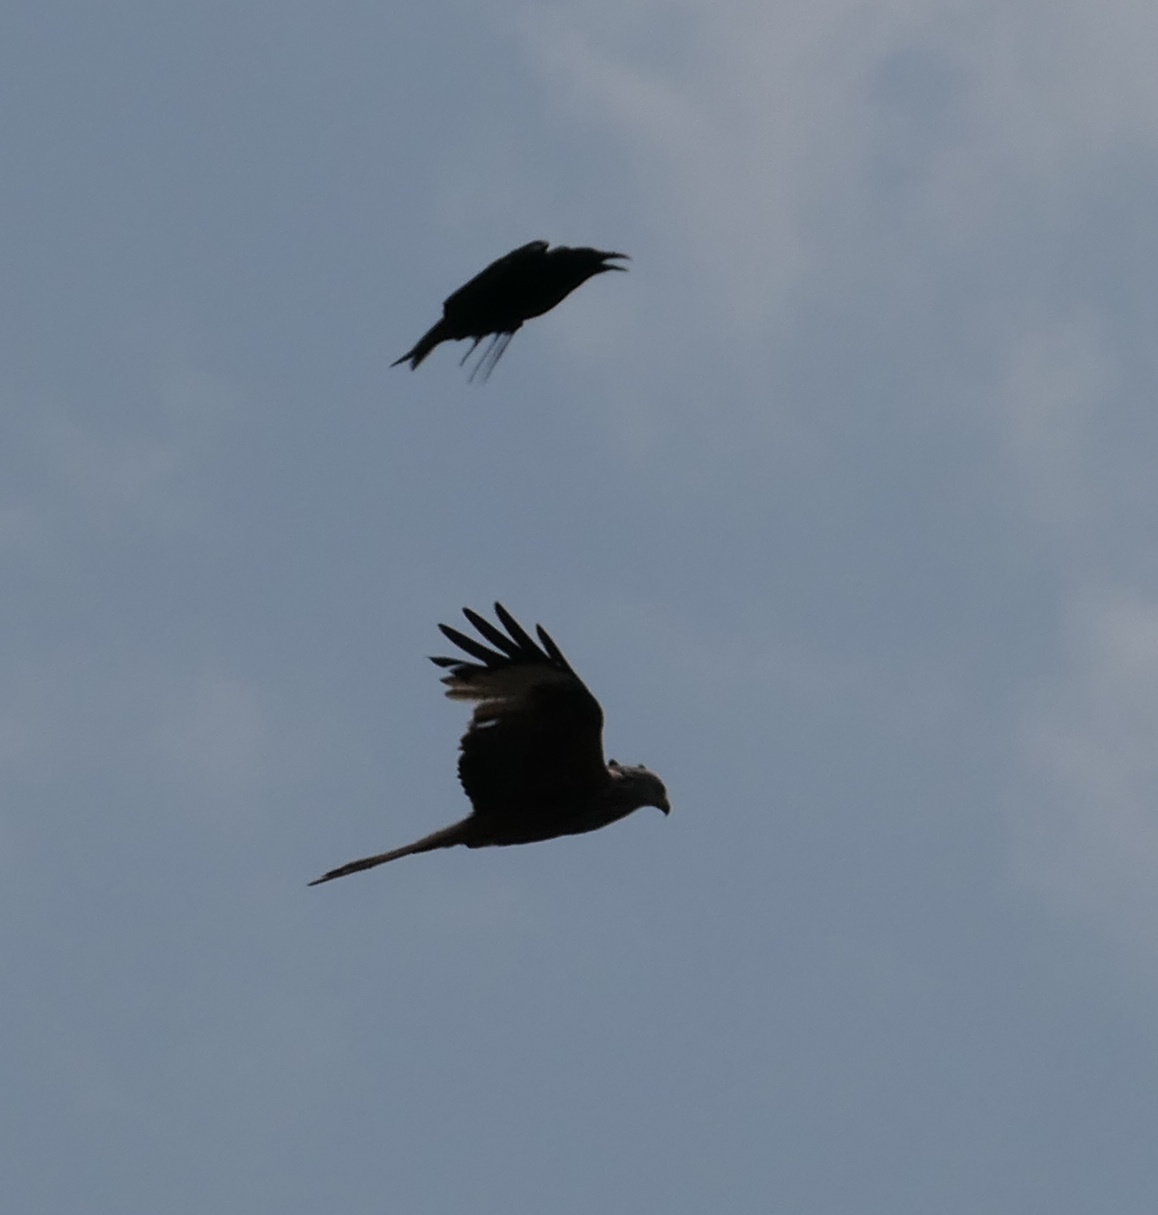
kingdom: Animalia
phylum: Chordata
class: Aves
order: Accipitriformes
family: Accipitridae
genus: Milvus
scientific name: Milvus milvus
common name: Red kite
